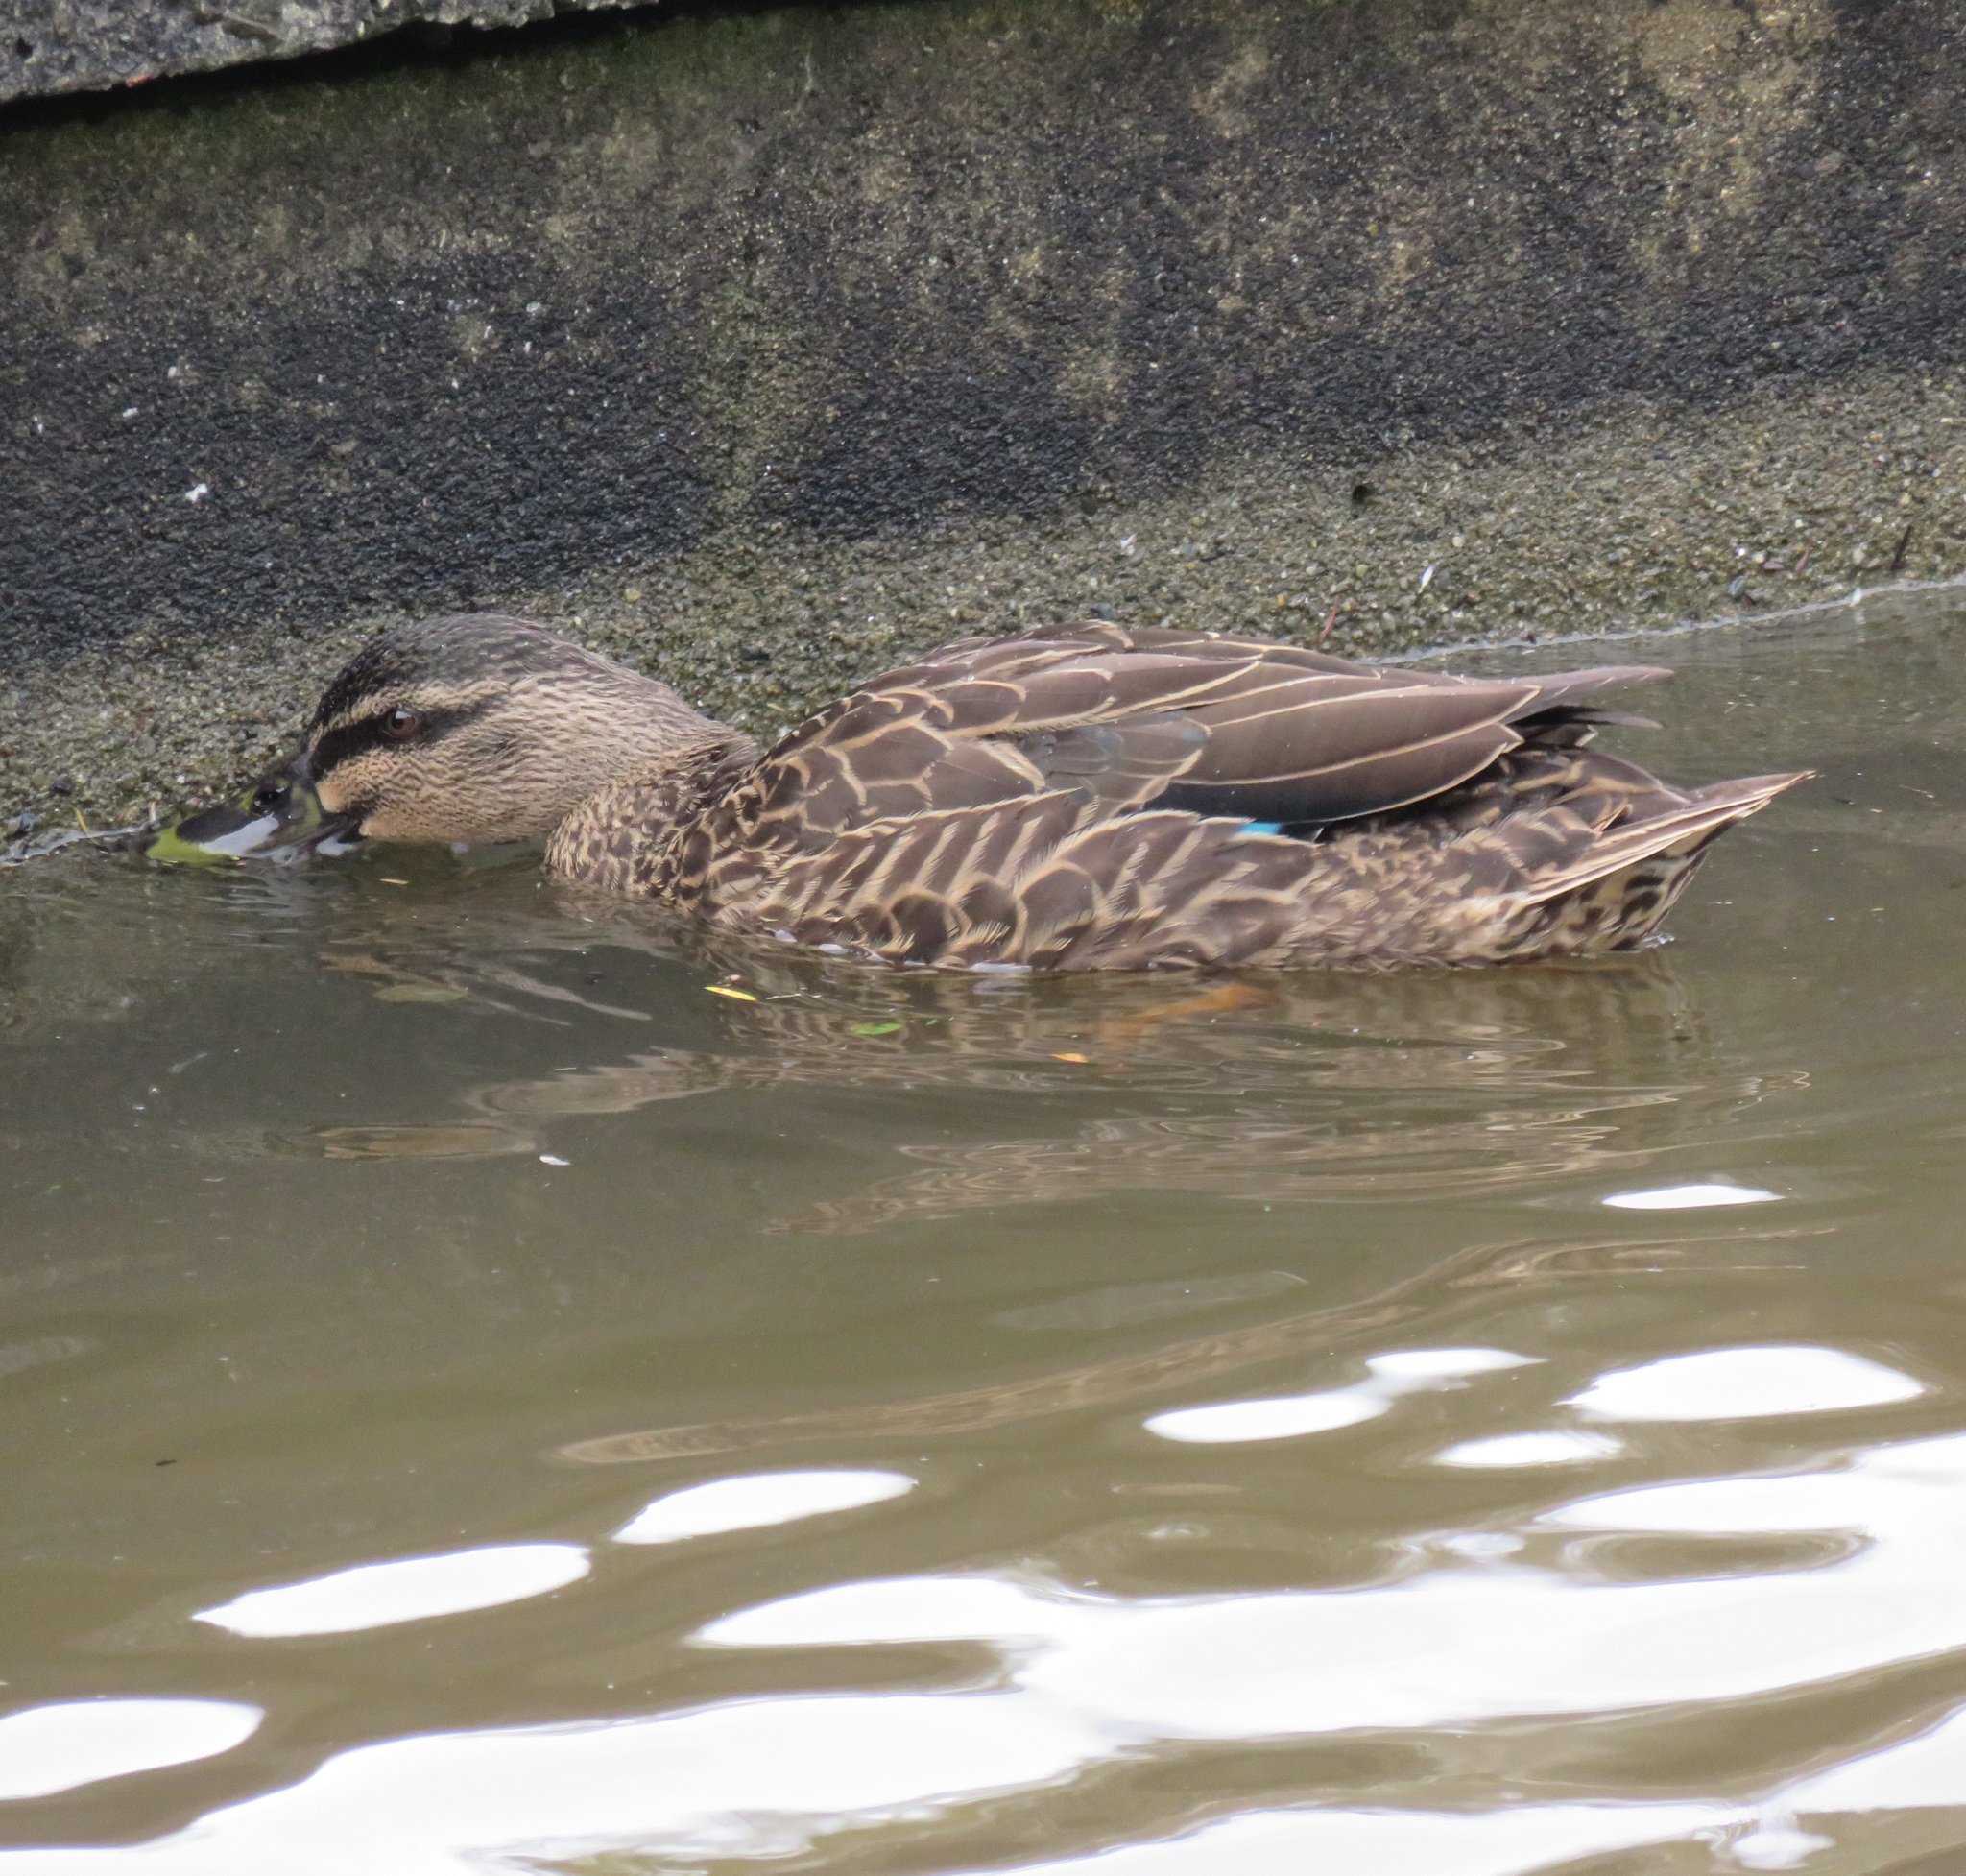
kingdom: Animalia
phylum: Chordata
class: Aves
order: Anseriformes
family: Anatidae
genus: Anas
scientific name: Anas
